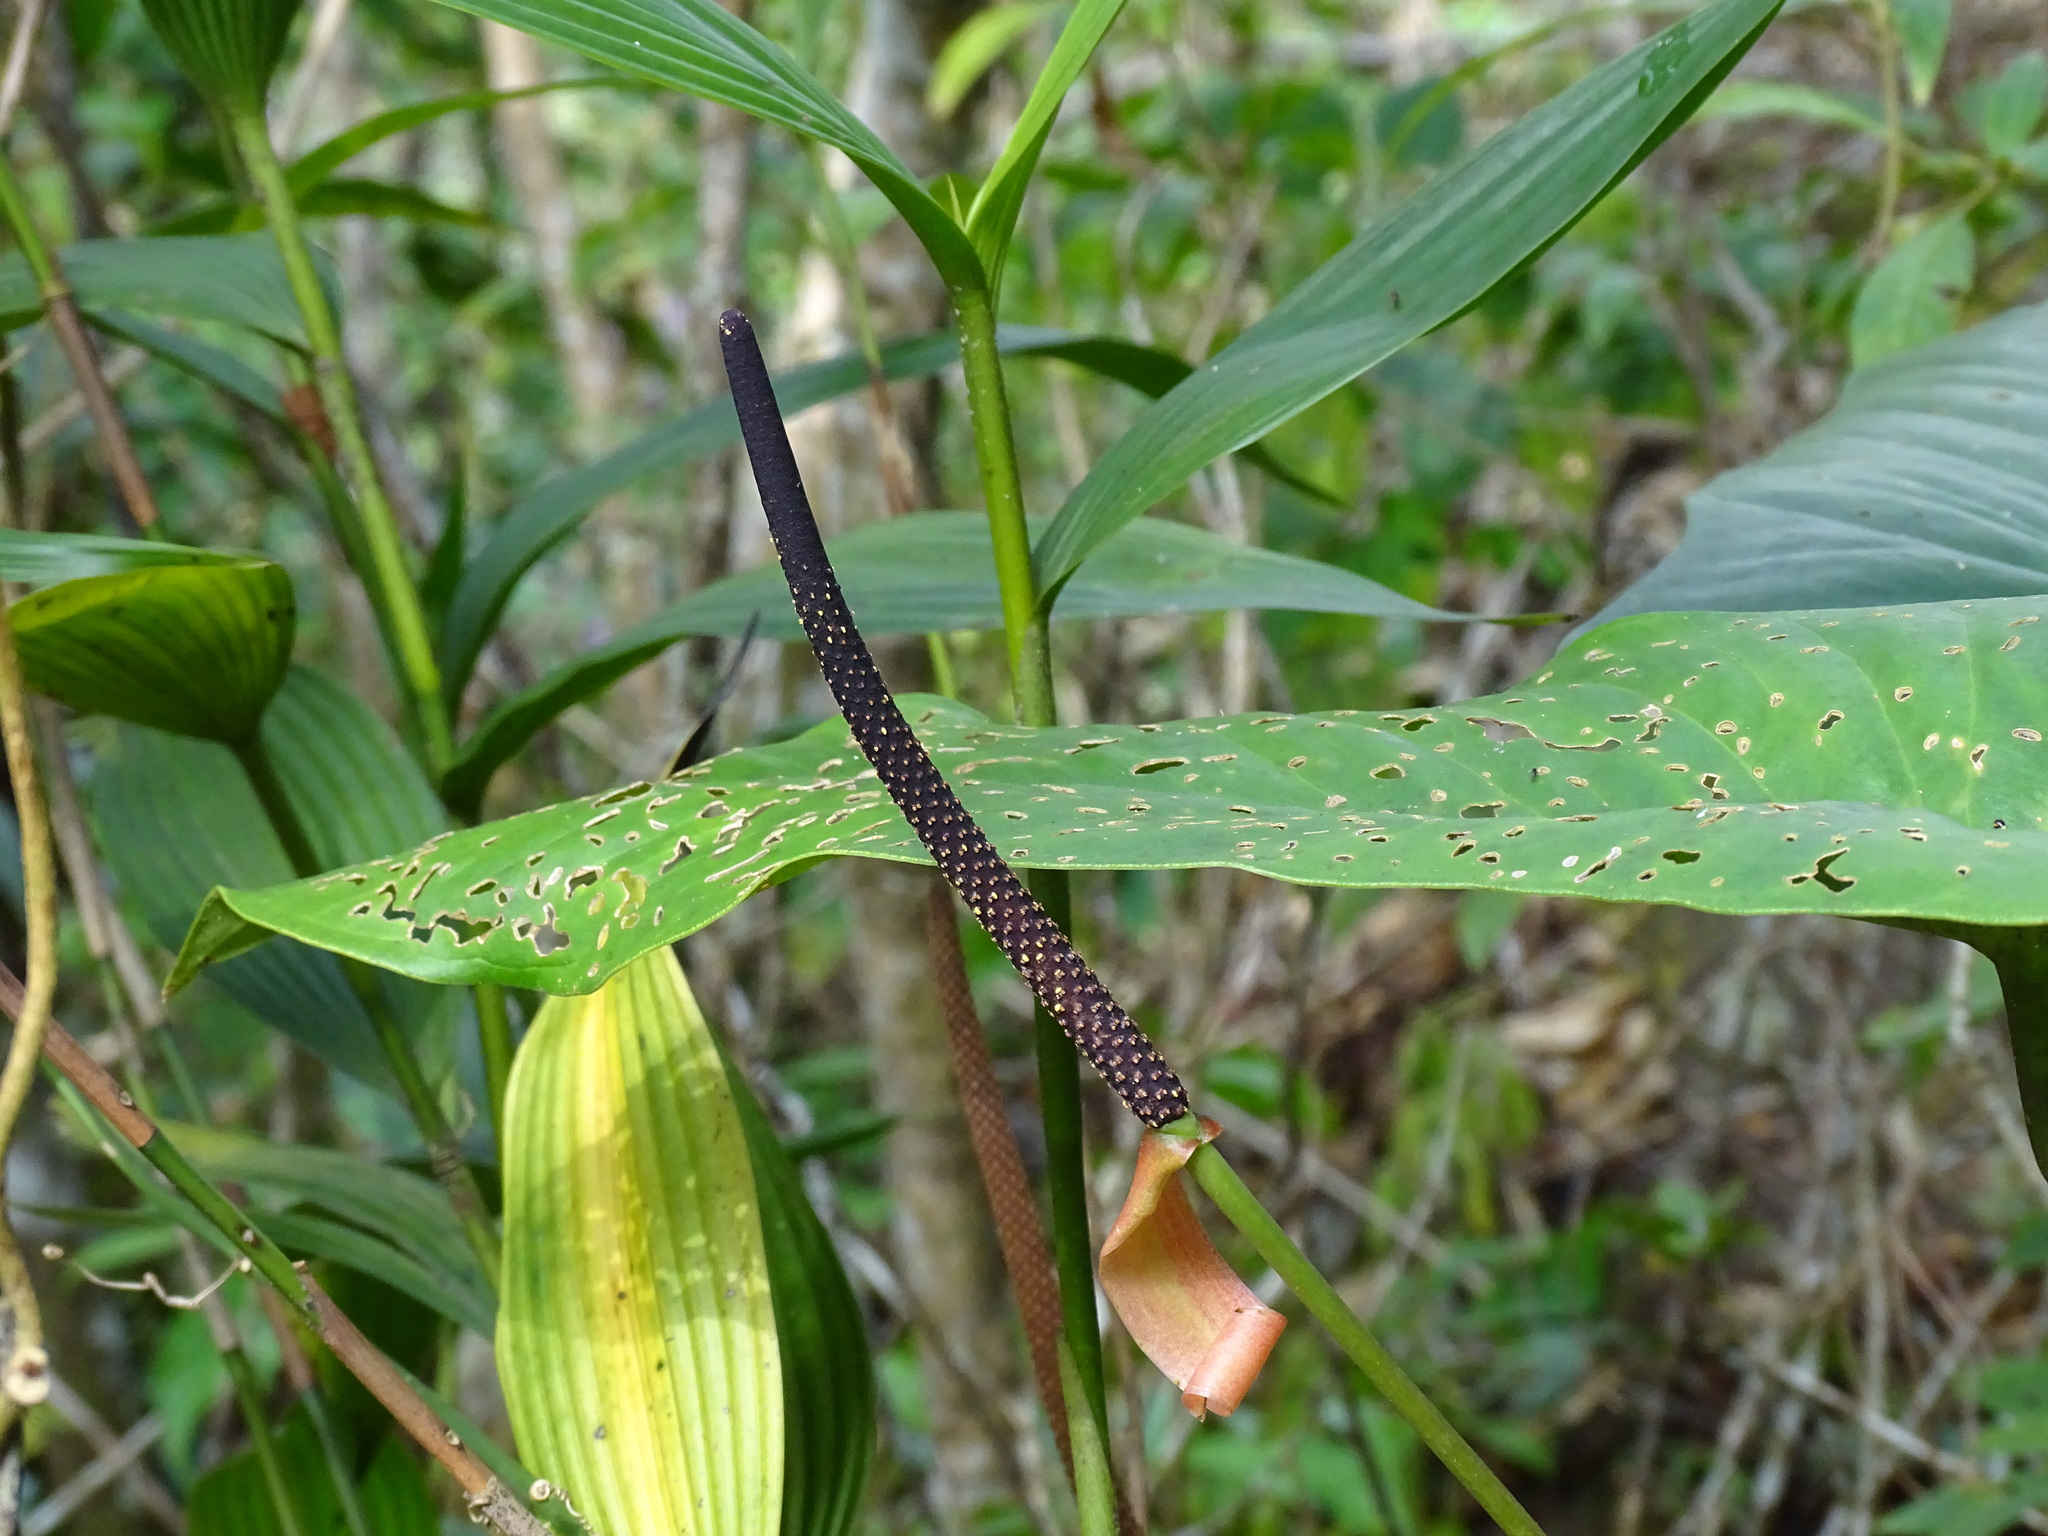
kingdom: Plantae
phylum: Tracheophyta
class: Liliopsida
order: Alismatales
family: Araceae
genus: Anthurium
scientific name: Anthurium chiapasense
